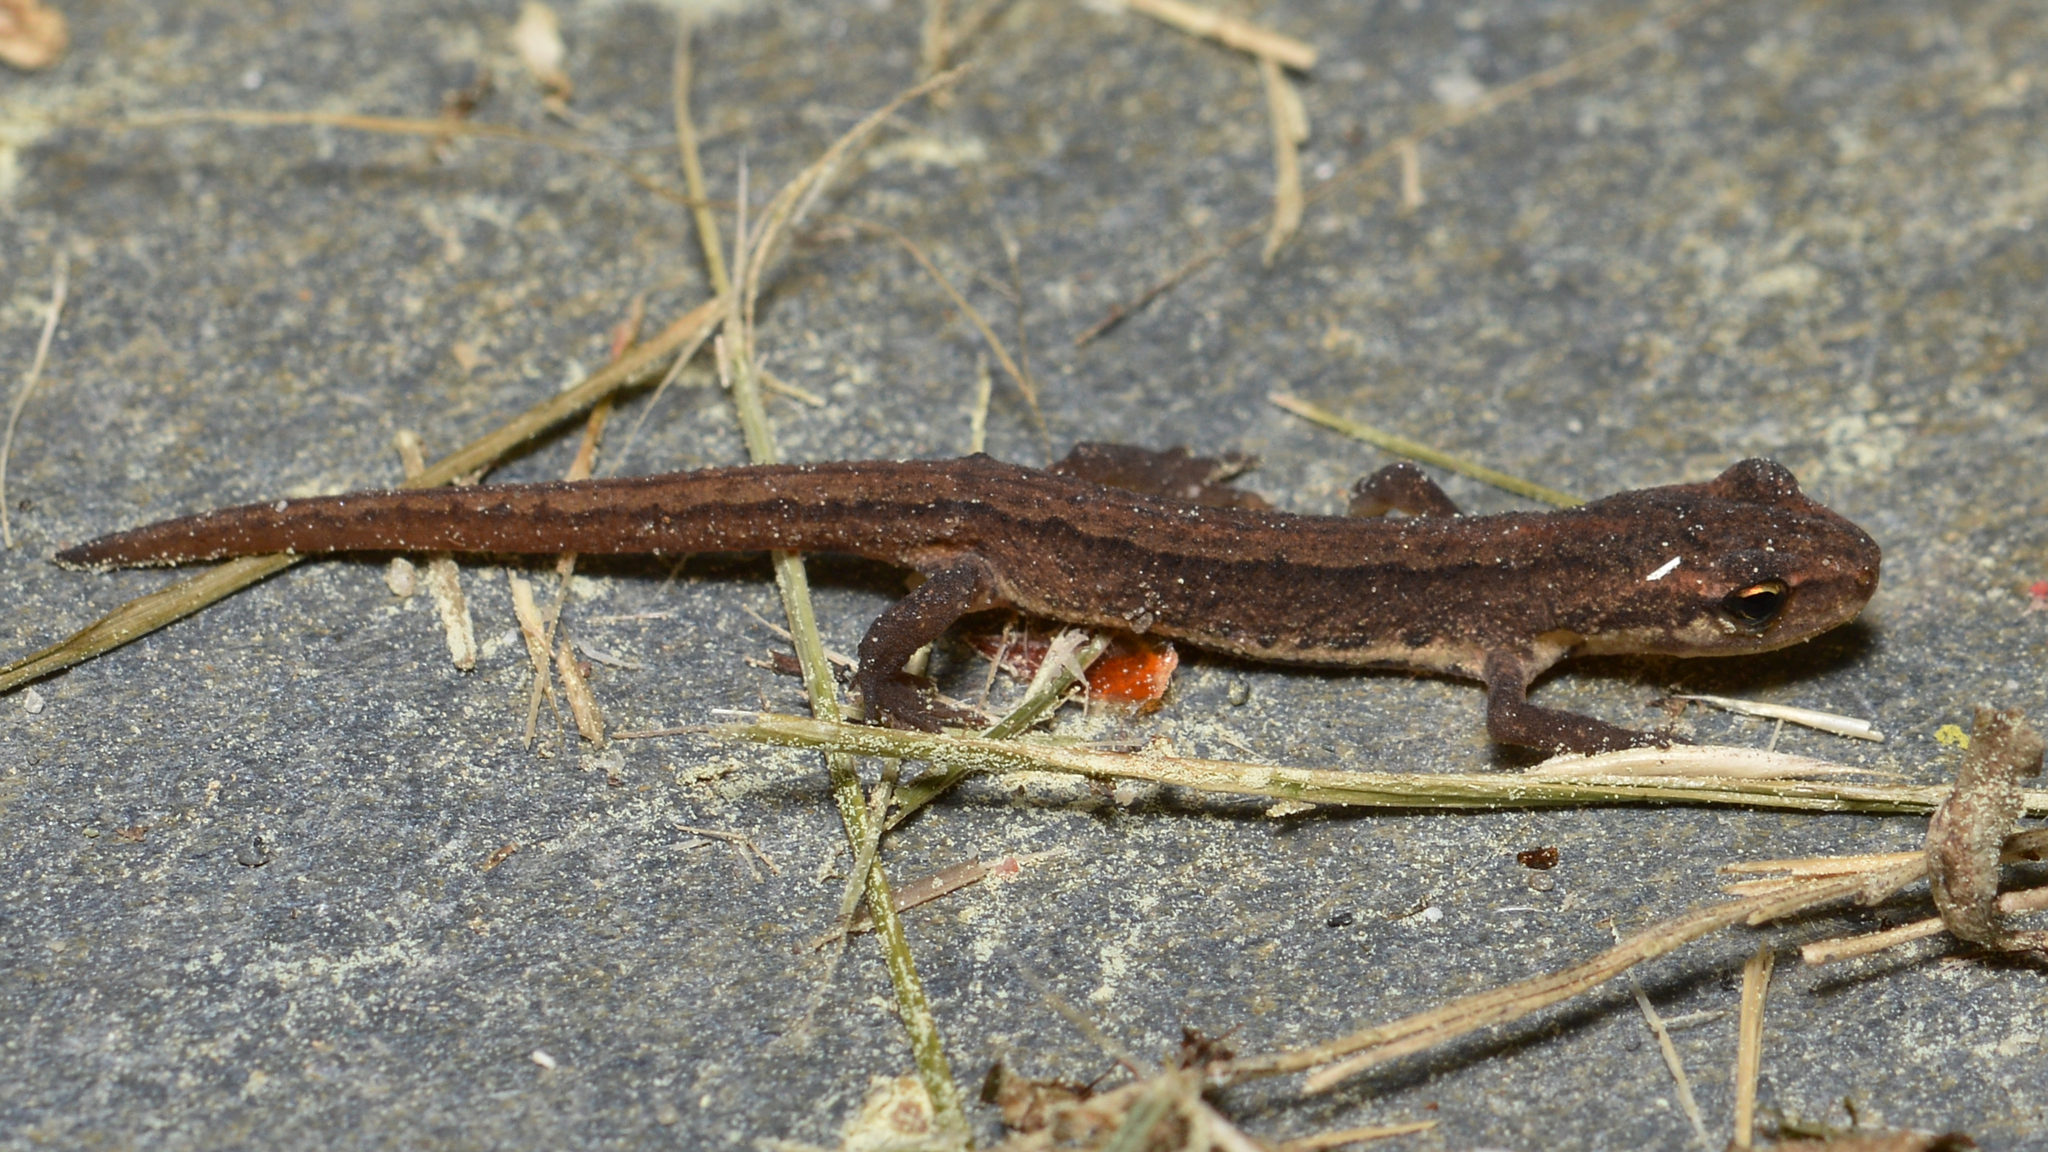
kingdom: Animalia
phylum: Chordata
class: Amphibia
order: Caudata
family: Salamandridae
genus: Lissotriton
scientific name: Lissotriton vulgaris
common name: Smooth newt
